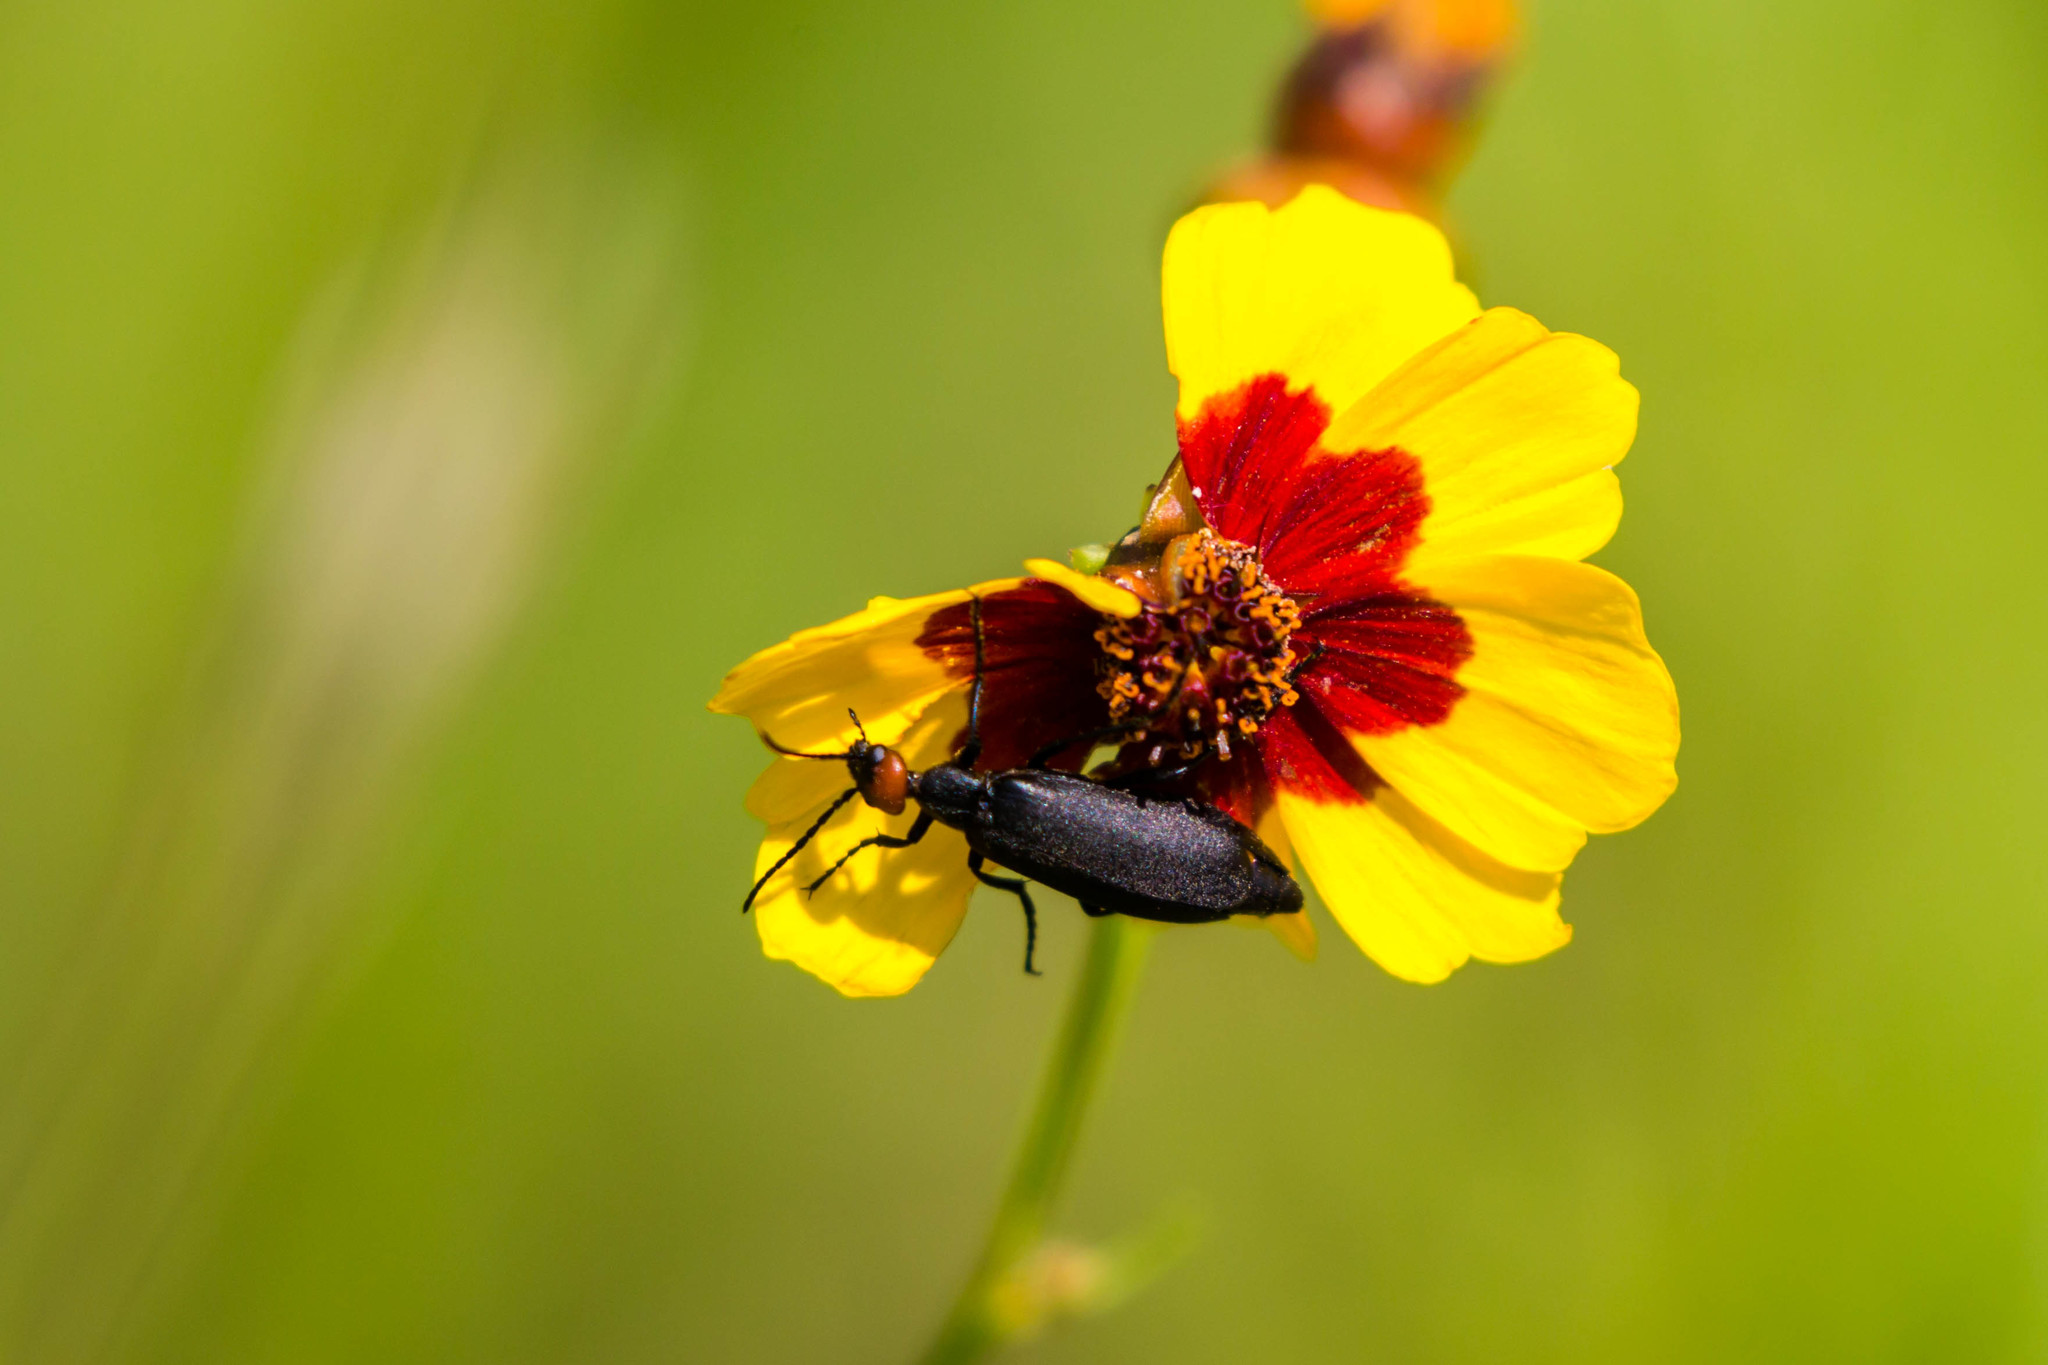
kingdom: Animalia
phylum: Arthropoda
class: Insecta
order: Coleoptera
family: Meloidae
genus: Epicauta
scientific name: Epicauta atrata
